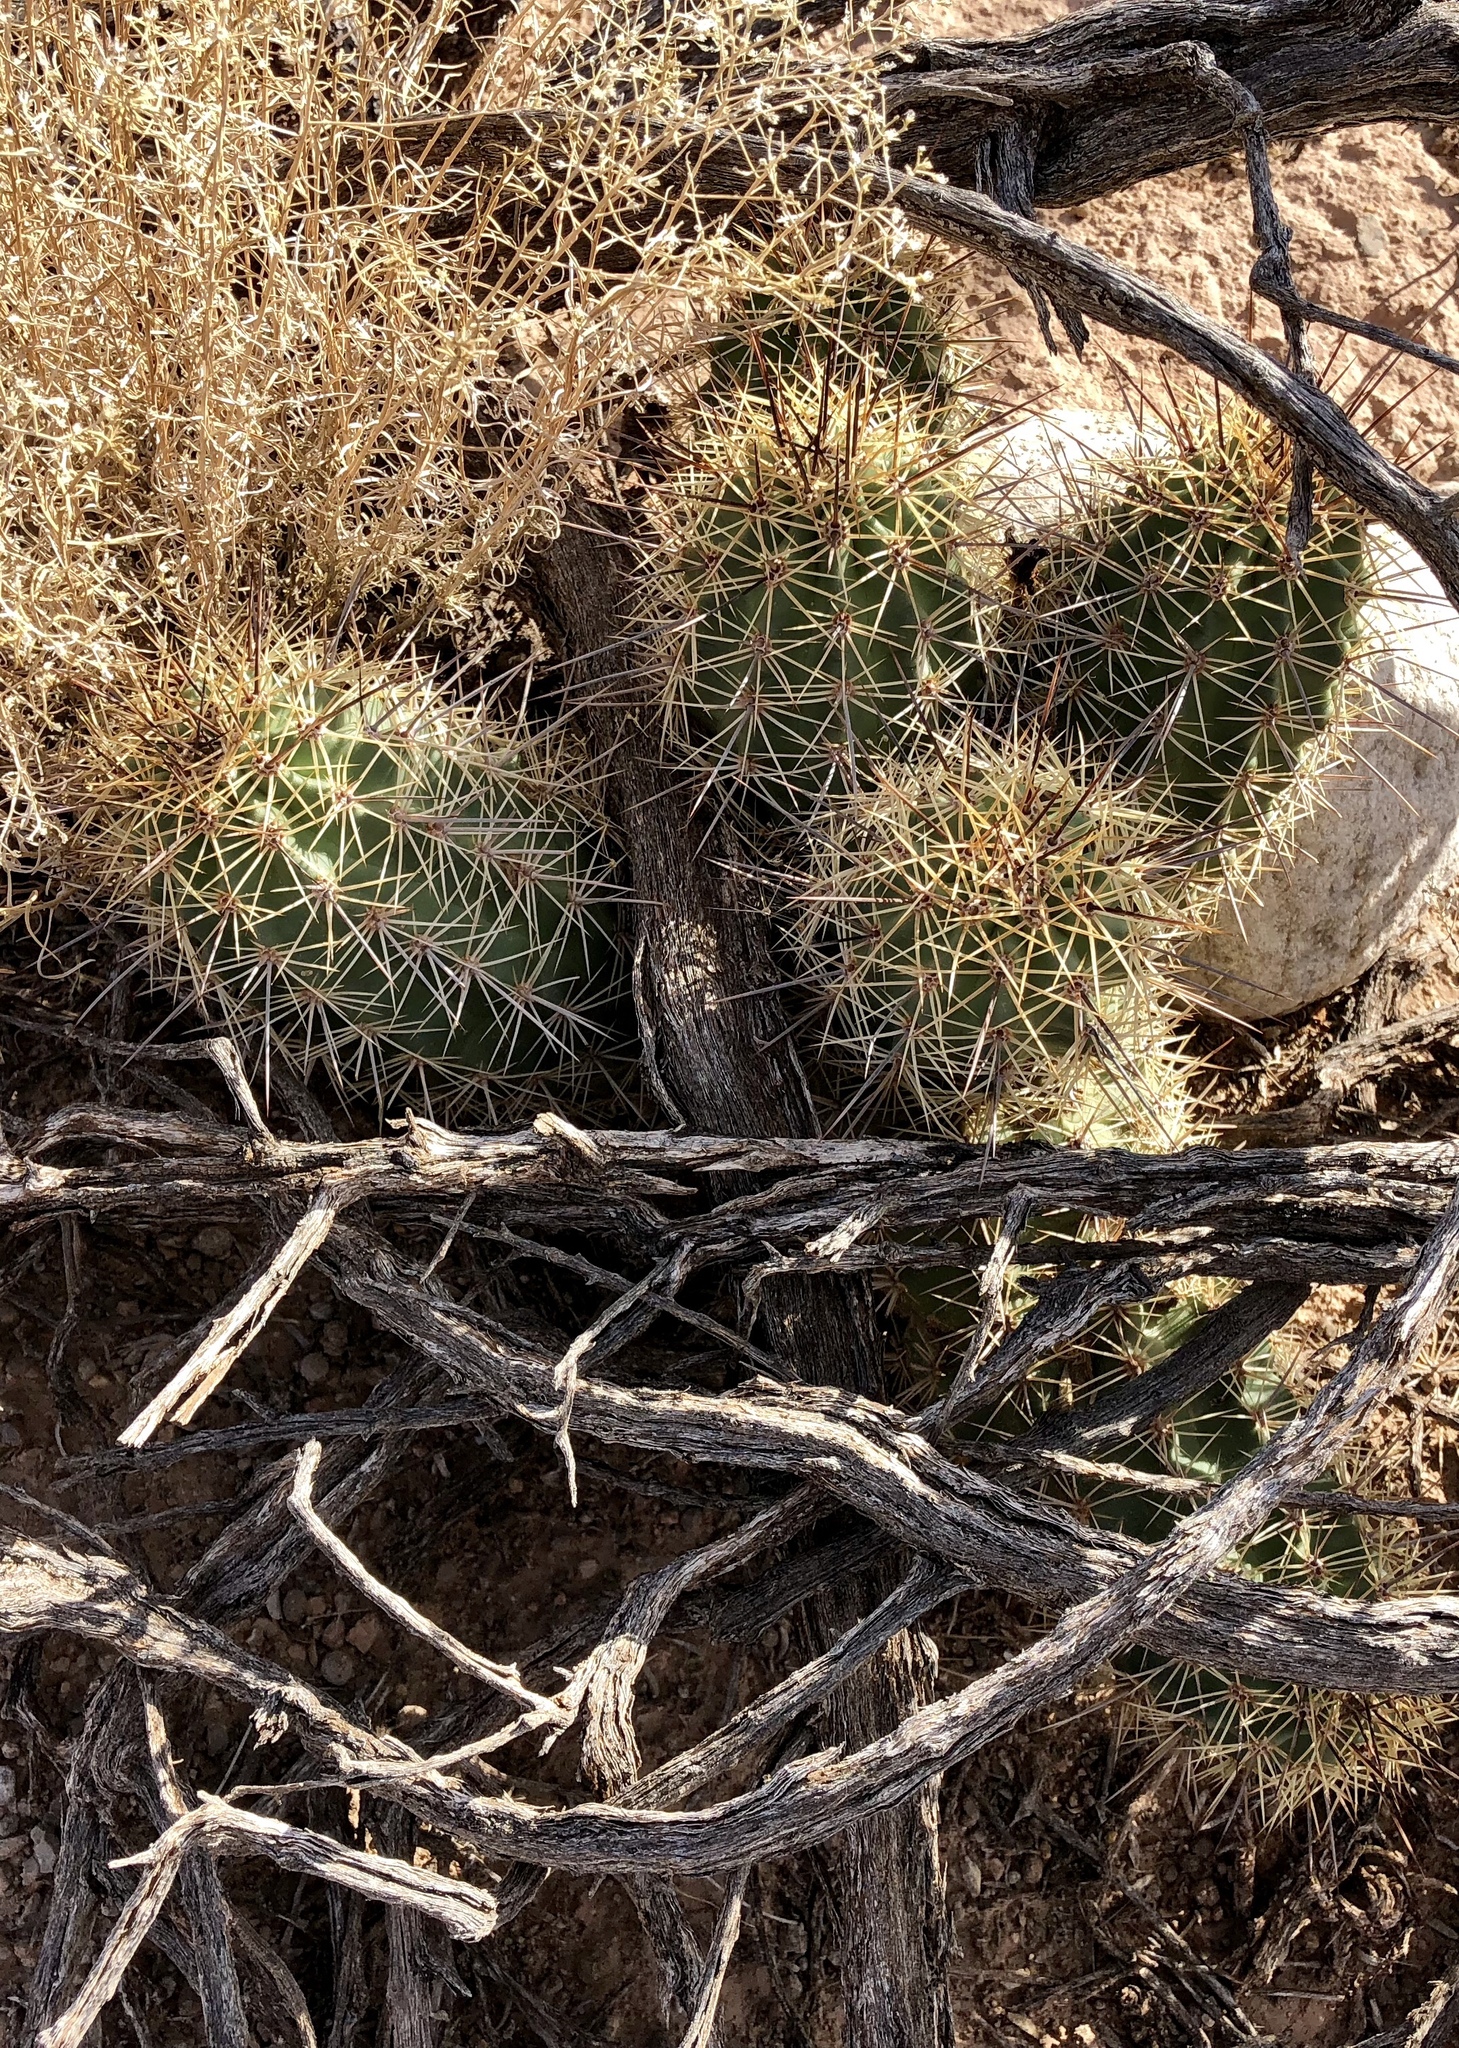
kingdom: Plantae
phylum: Tracheophyta
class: Magnoliopsida
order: Caryophyllales
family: Cactaceae
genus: Echinocereus
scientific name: Echinocereus coccineus
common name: Scarlet hedgehog cactus
